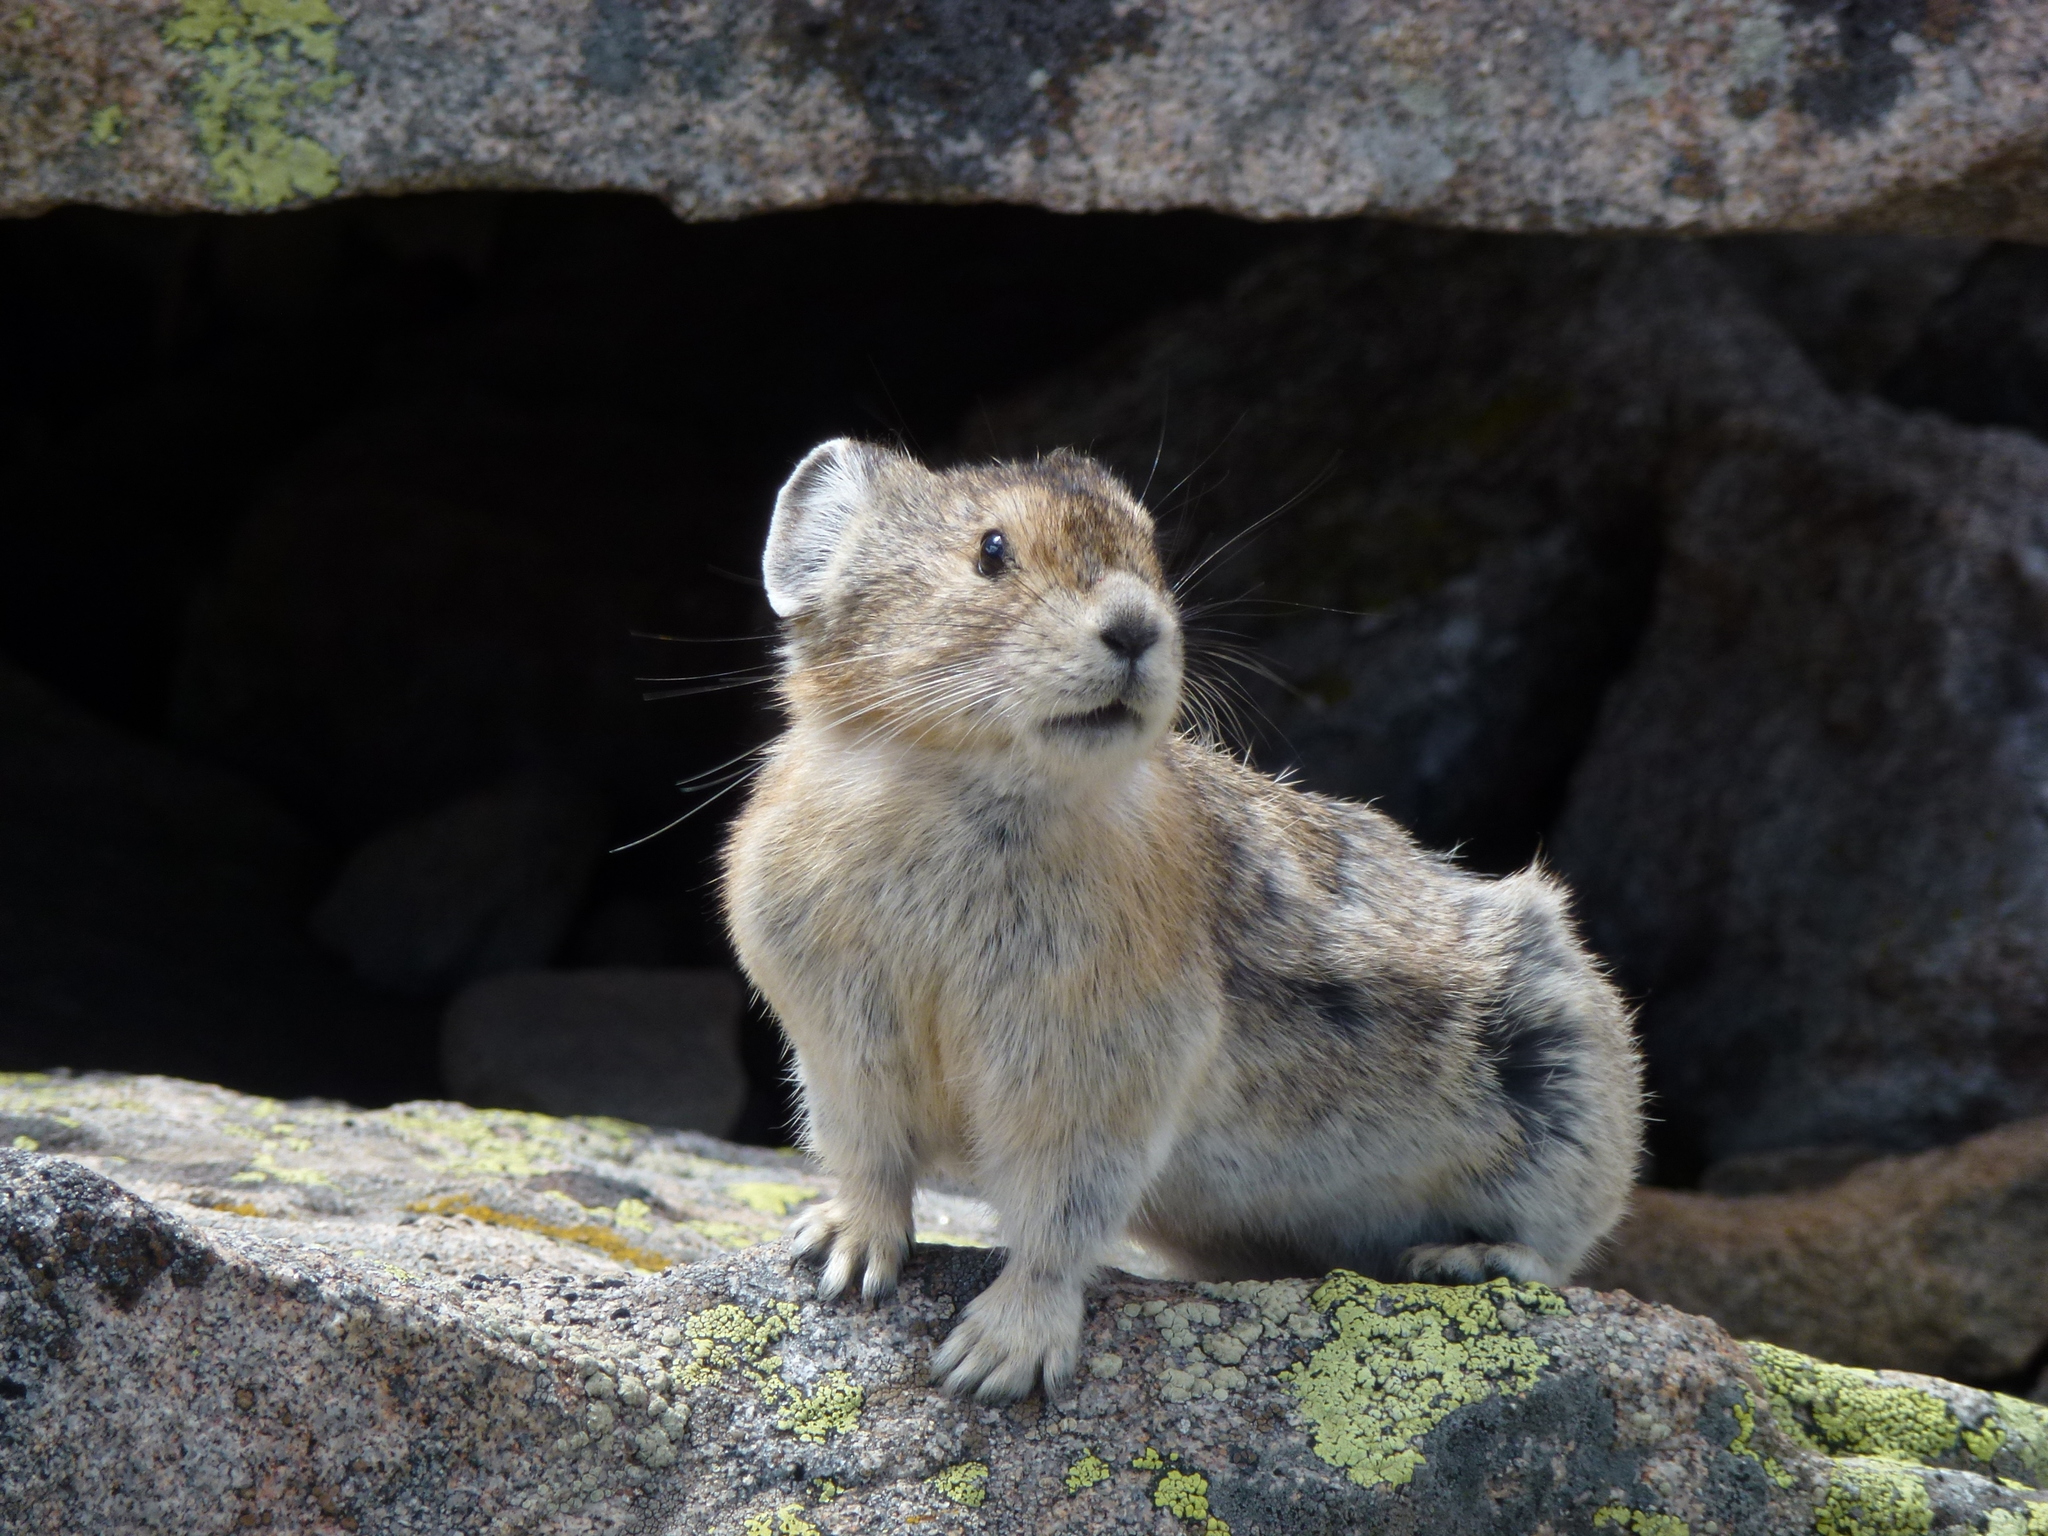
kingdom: Animalia
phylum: Chordata
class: Mammalia
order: Lagomorpha
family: Ochotonidae
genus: Ochotona
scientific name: Ochotona princeps
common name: American pika
